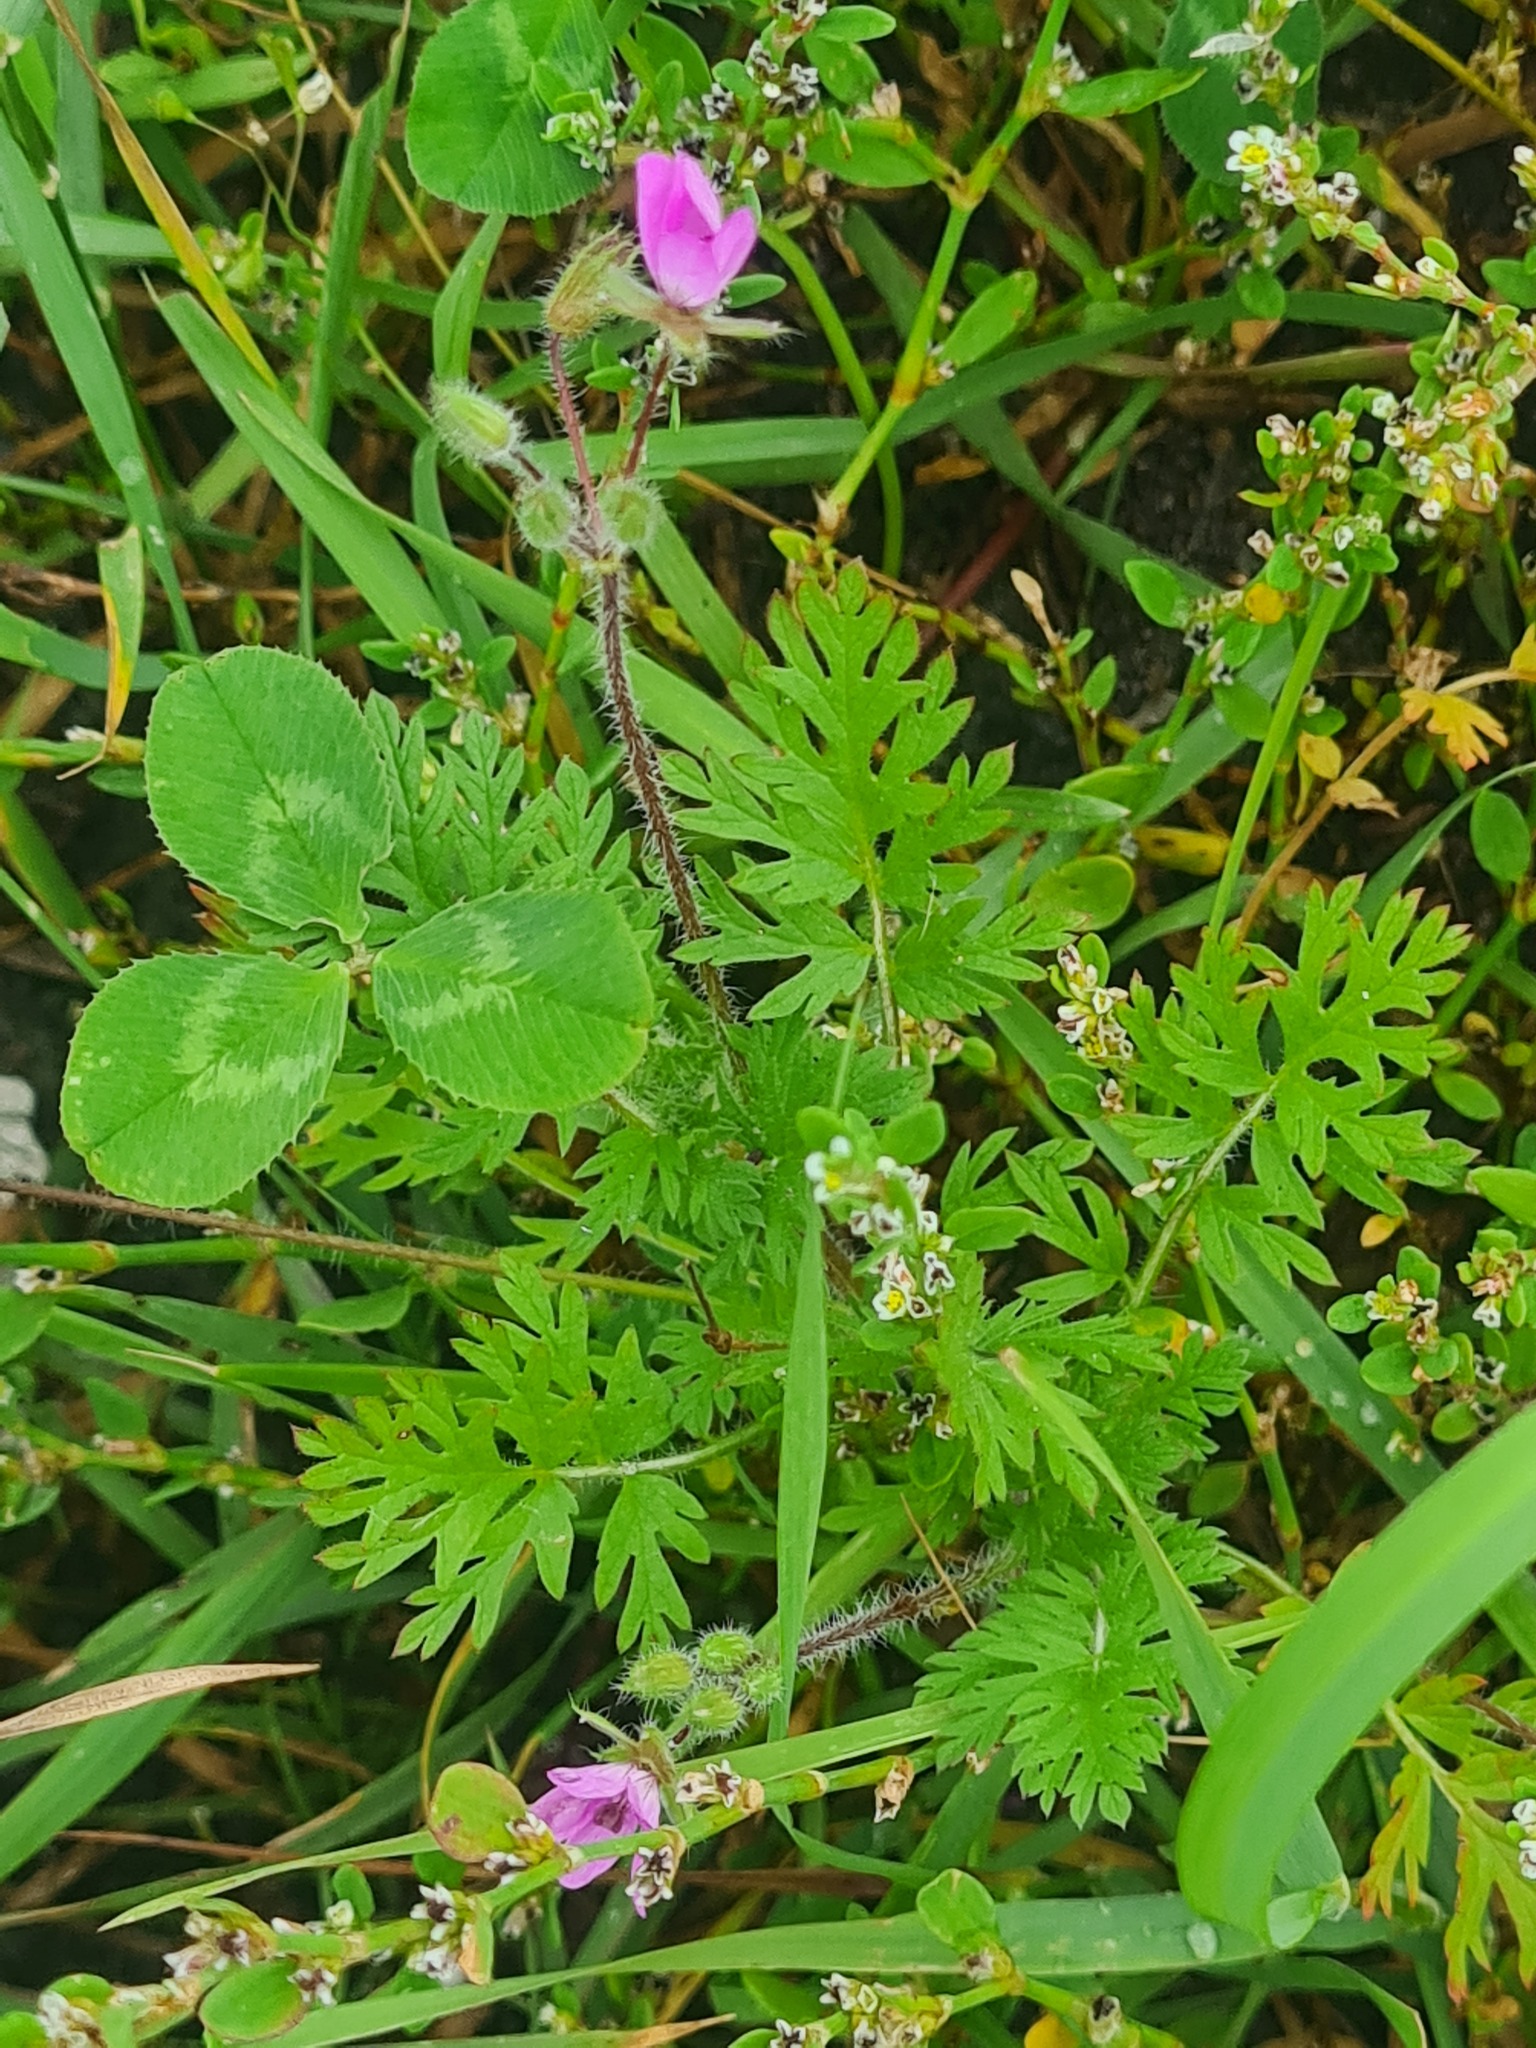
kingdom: Plantae
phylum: Tracheophyta
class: Magnoliopsida
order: Geraniales
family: Geraniaceae
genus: Erodium
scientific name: Erodium cicutarium
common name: Common stork's-bill
